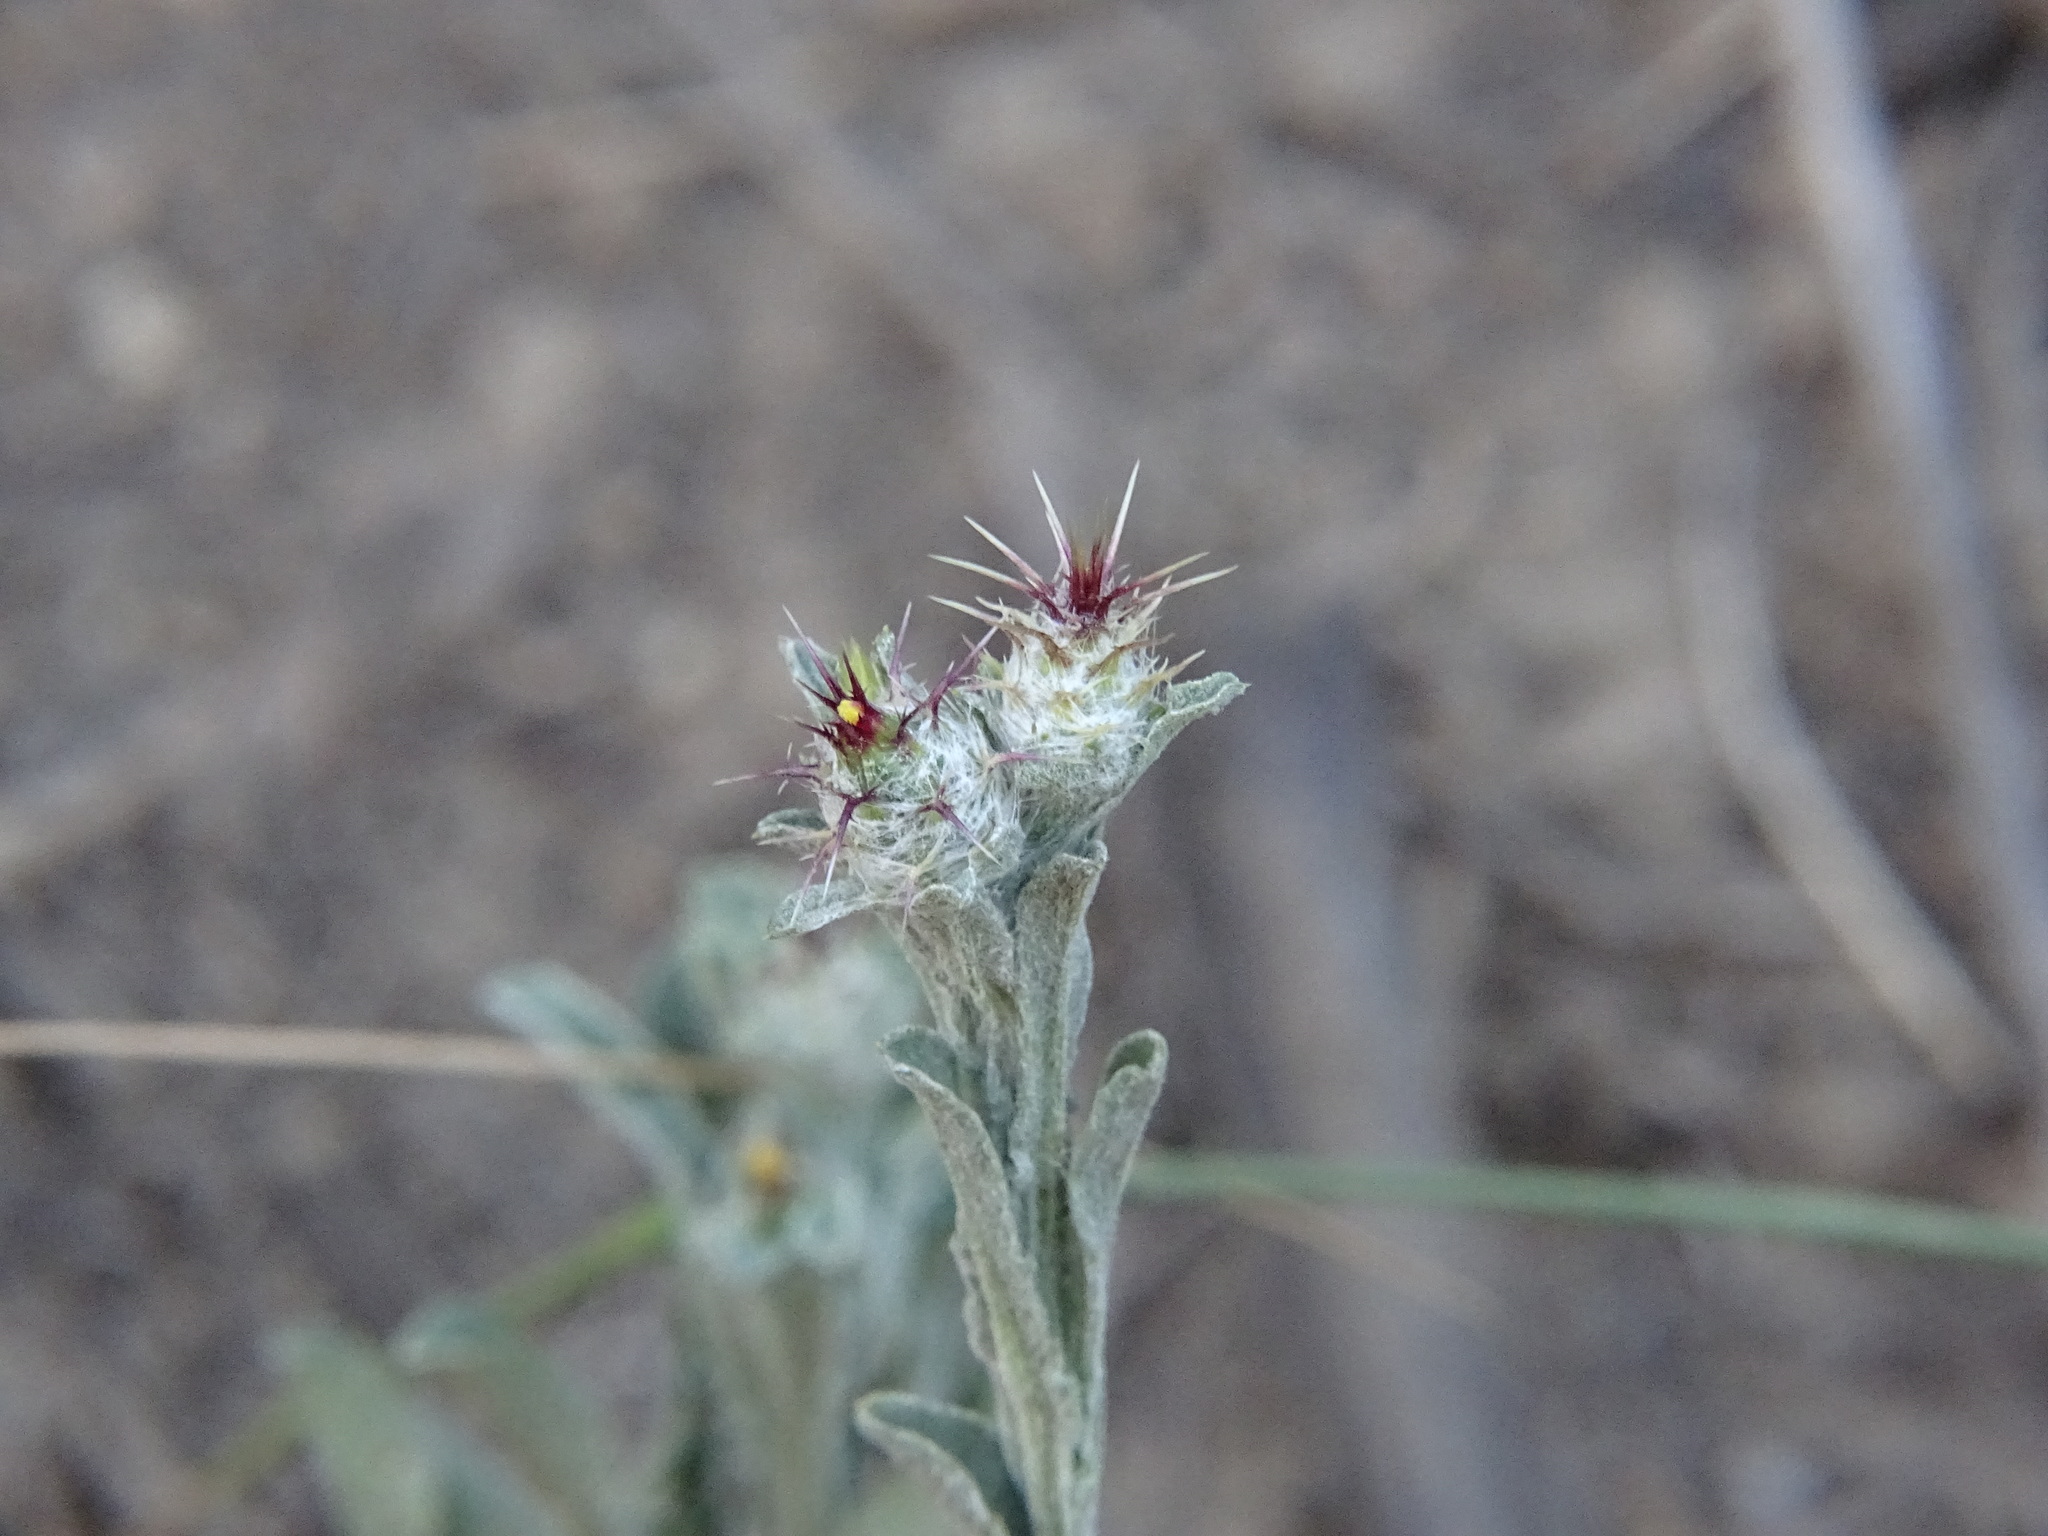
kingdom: Plantae
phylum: Tracheophyta
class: Magnoliopsida
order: Asterales
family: Asteraceae
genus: Centaurea
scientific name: Centaurea melitensis
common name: Maltese star-thistle
